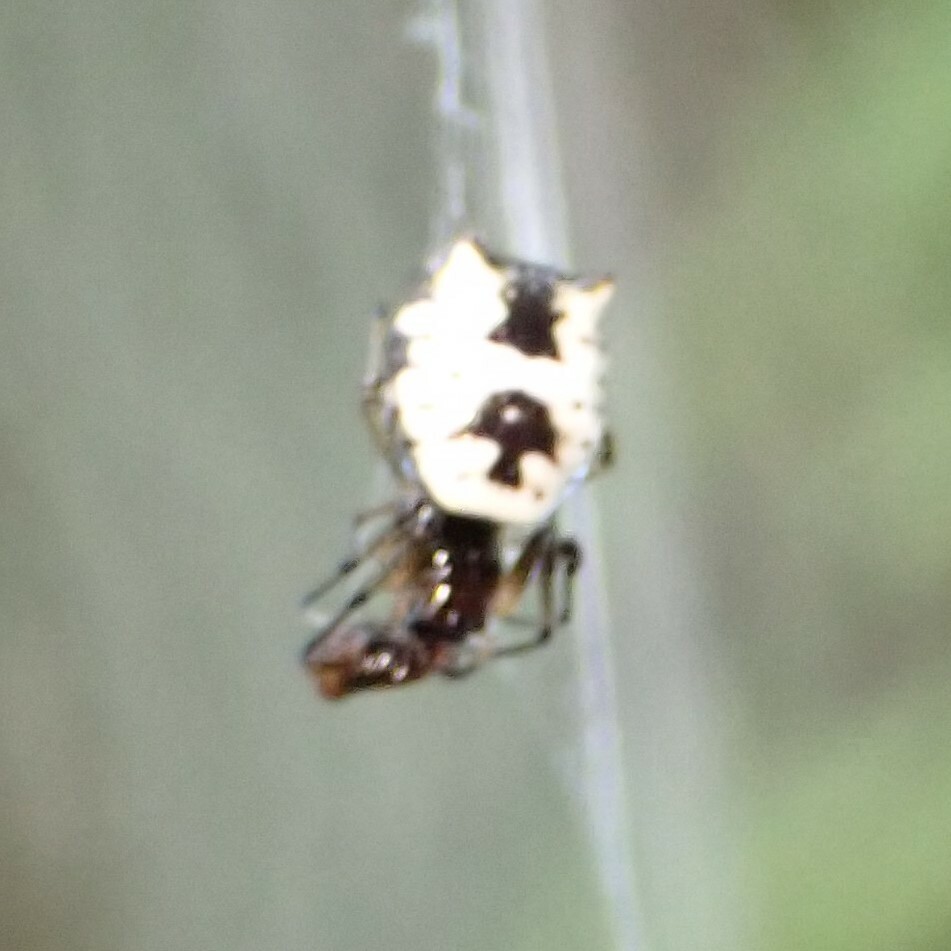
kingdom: Animalia
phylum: Arthropoda
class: Arachnida
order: Araneae
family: Araneidae
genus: Micrathena
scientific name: Micrathena mitrata
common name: Orb weavers
